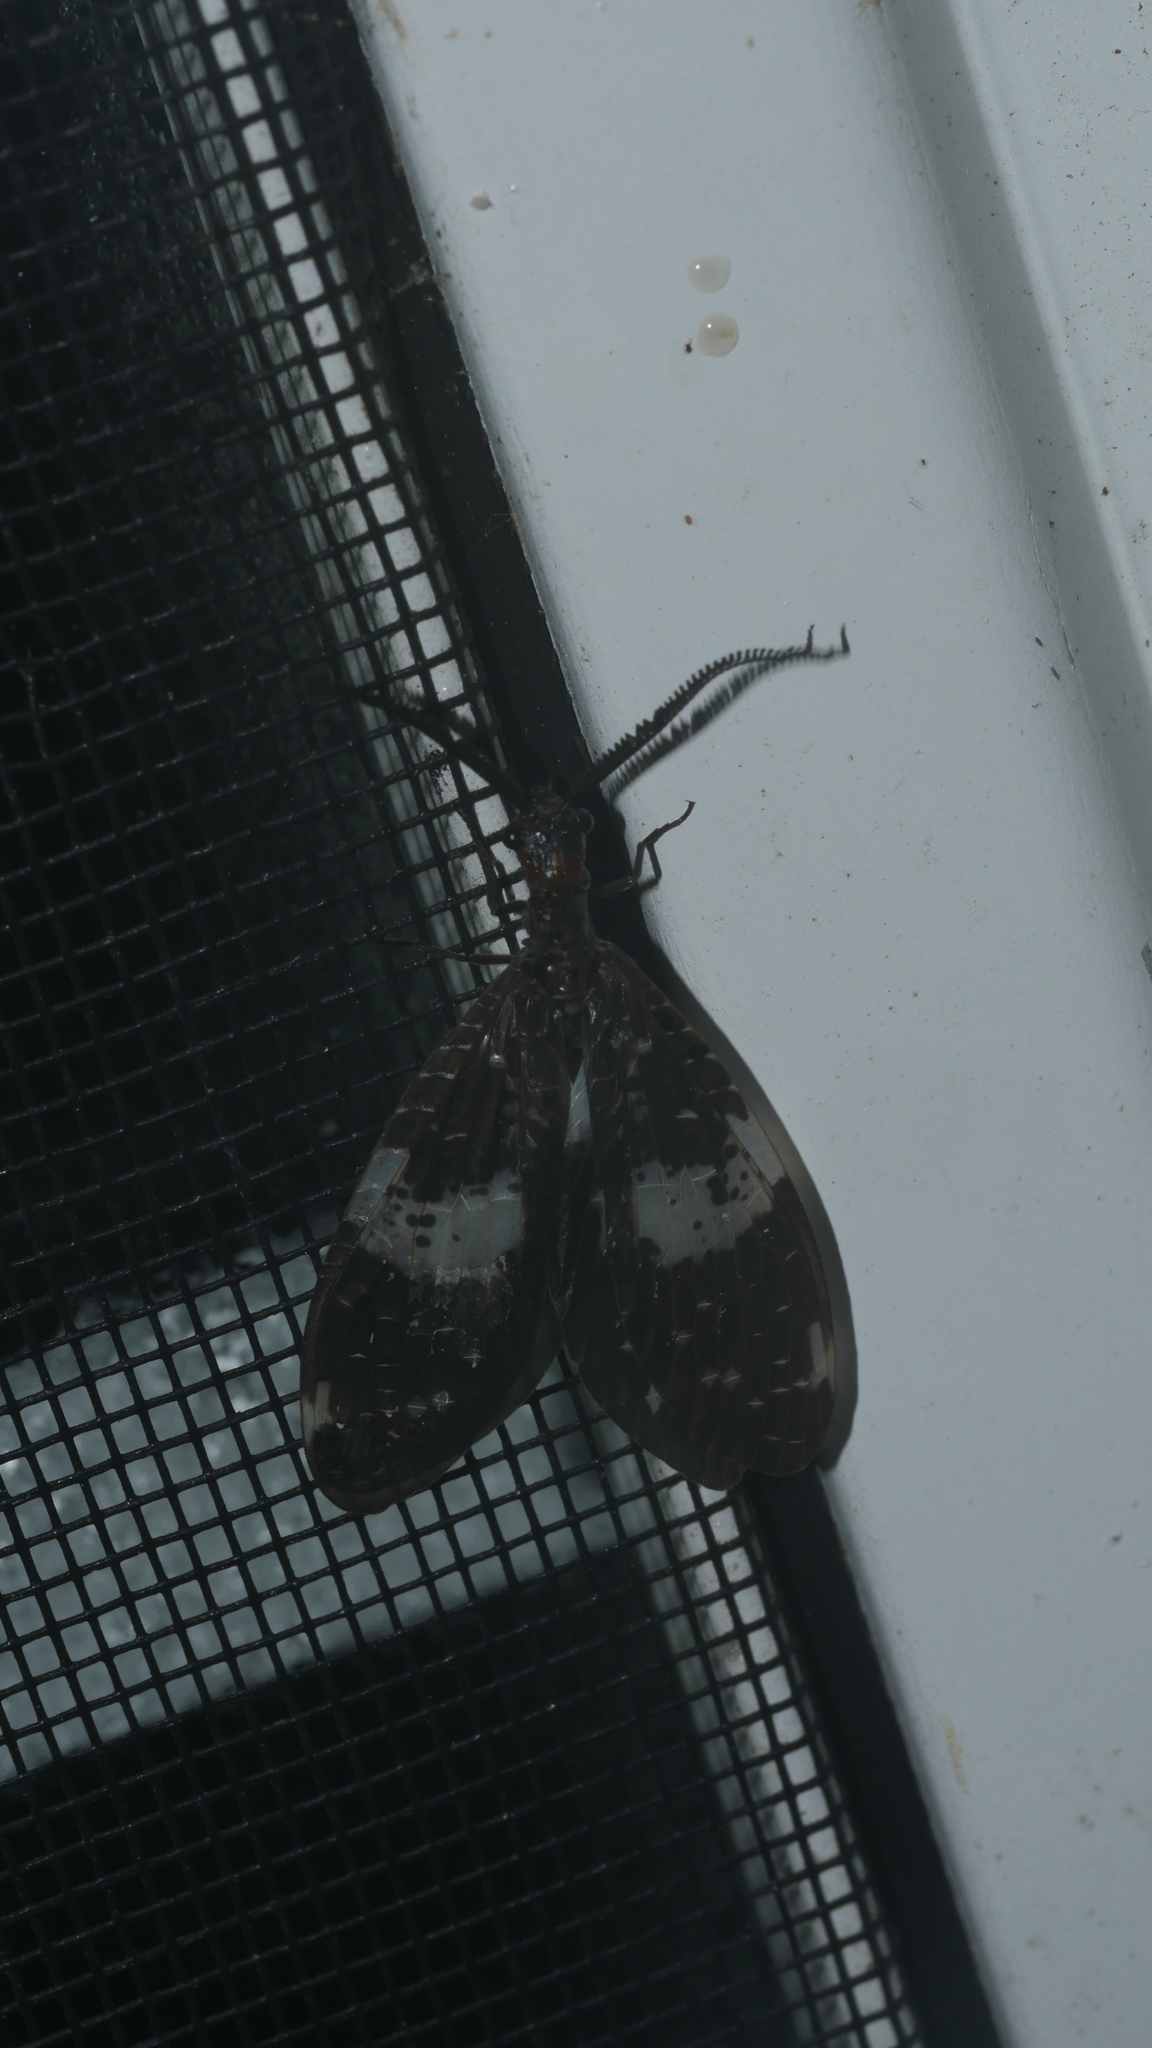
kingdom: Animalia
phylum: Arthropoda
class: Insecta
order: Megaloptera
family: Corydalidae
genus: Nigronia
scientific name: Nigronia fasciata
